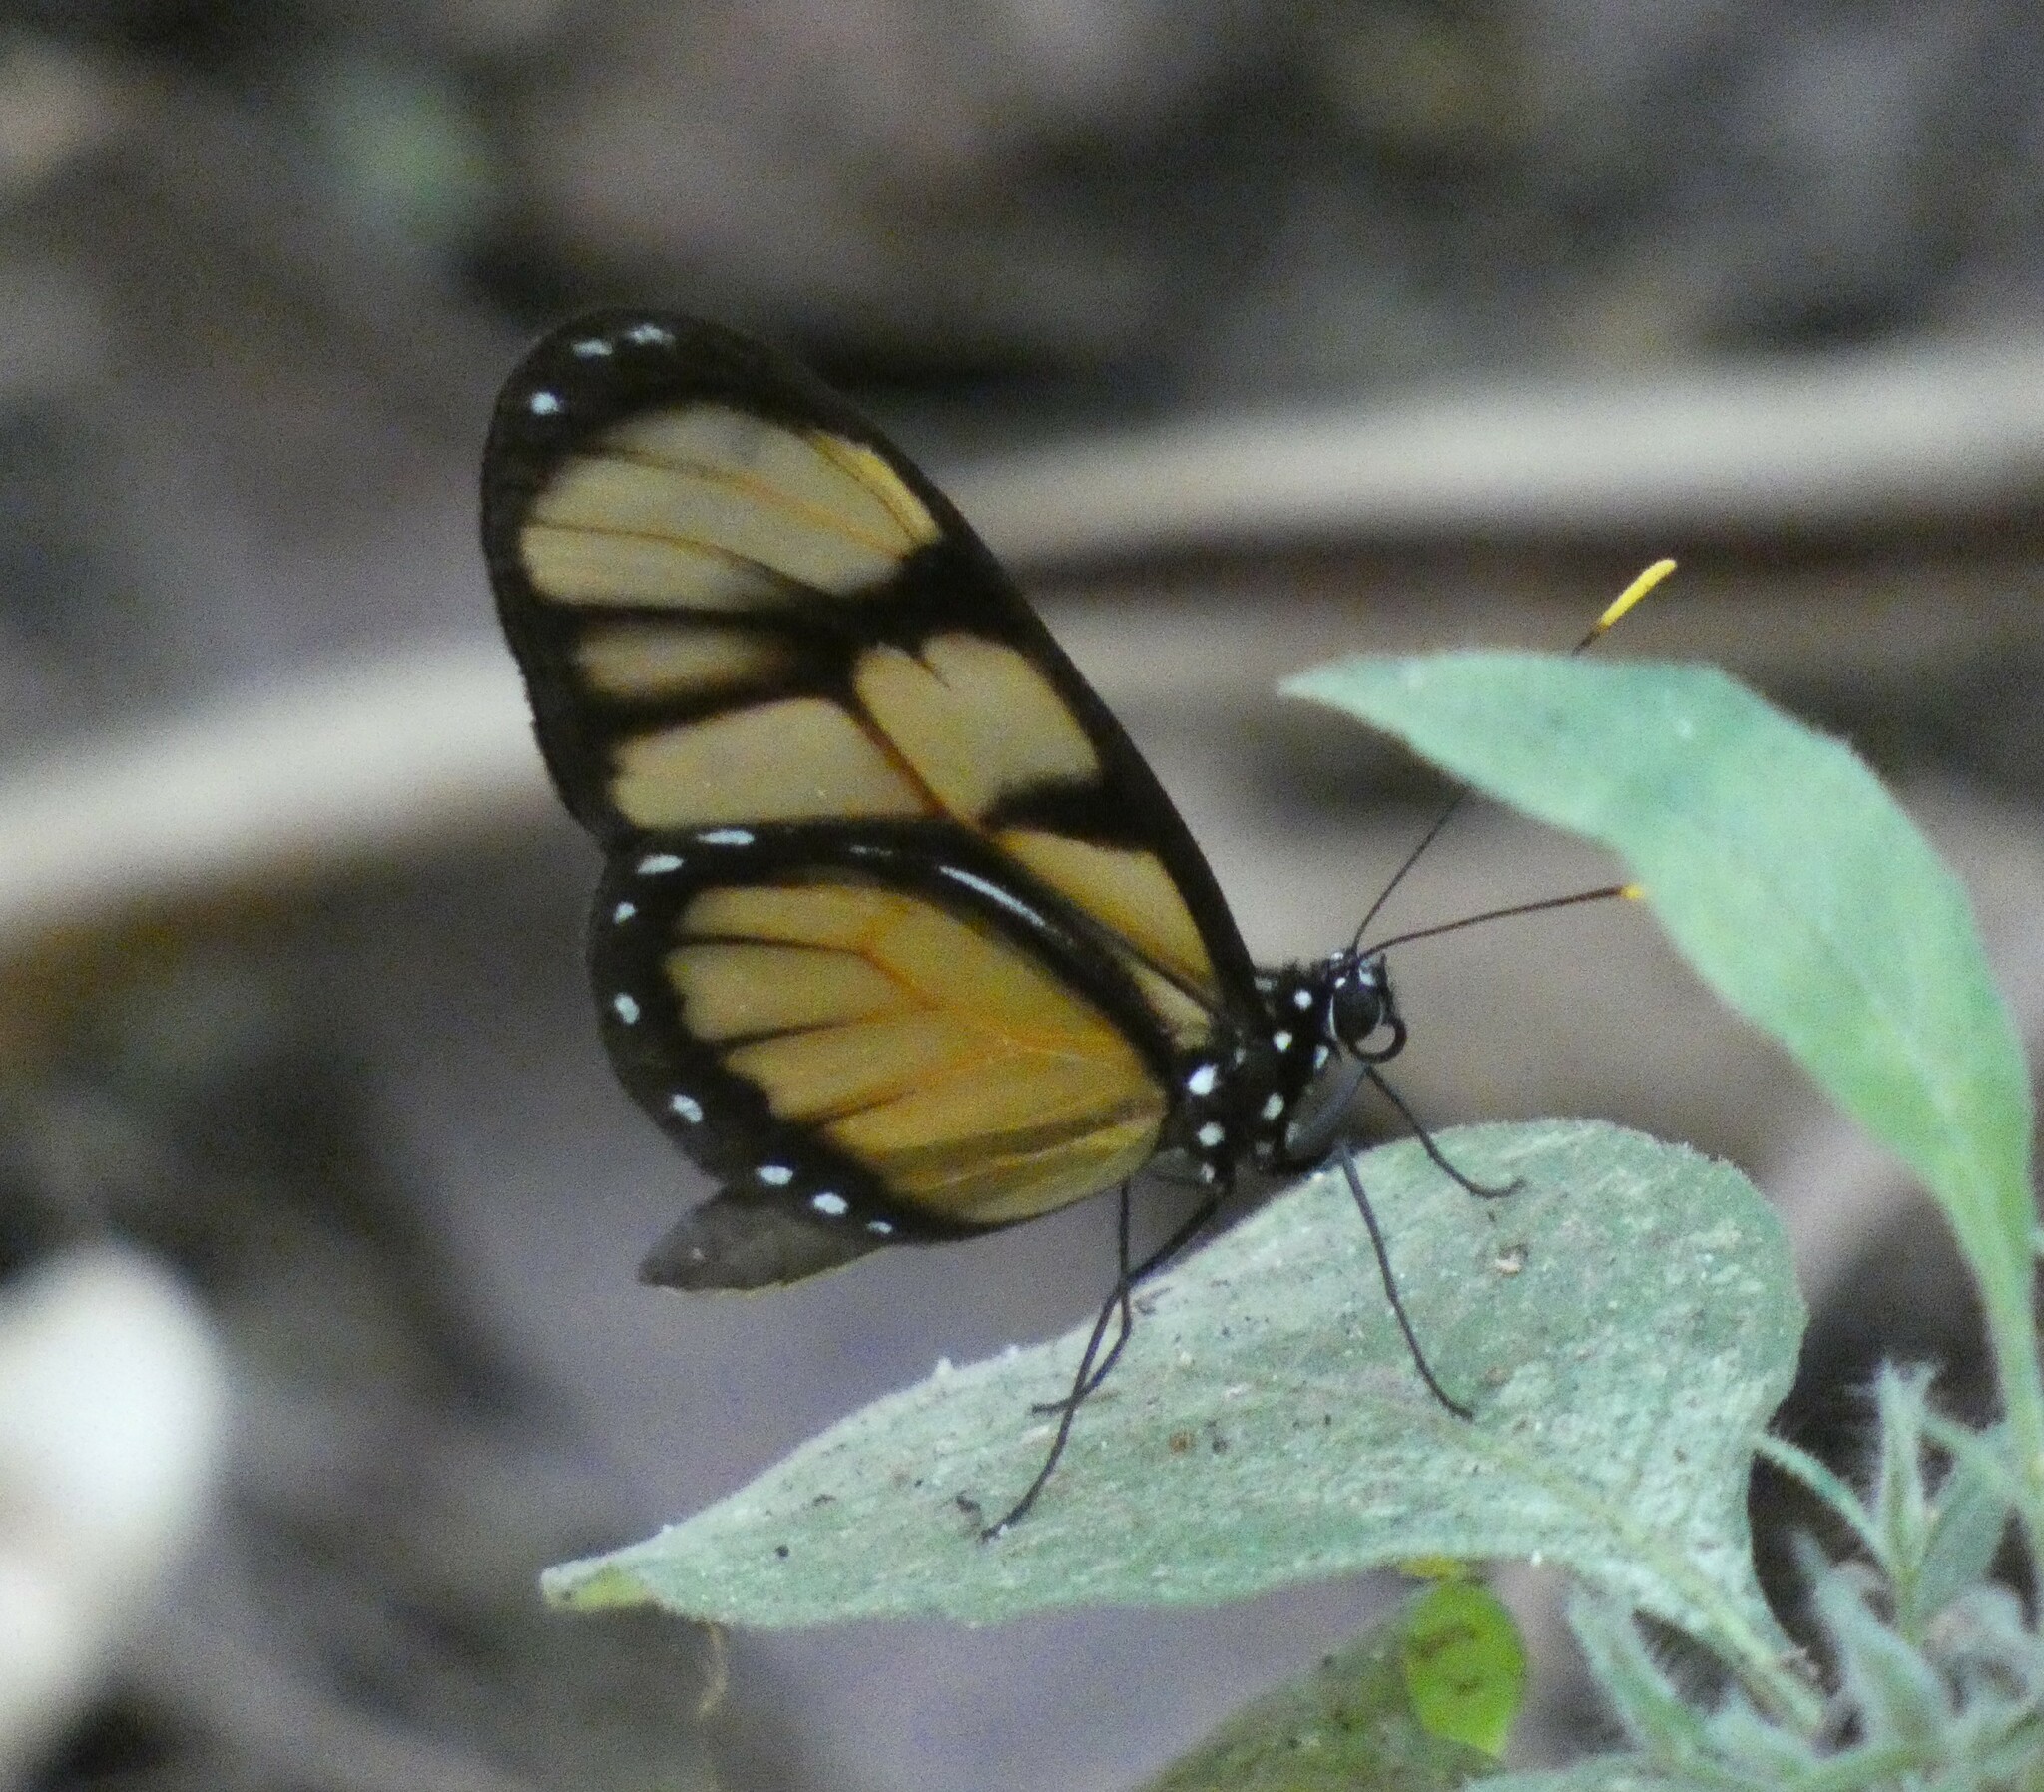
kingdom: Animalia
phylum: Arthropoda
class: Insecta
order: Lepidoptera
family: Nymphalidae
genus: Dircenna
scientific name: Dircenna dero
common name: Dero clearwing
